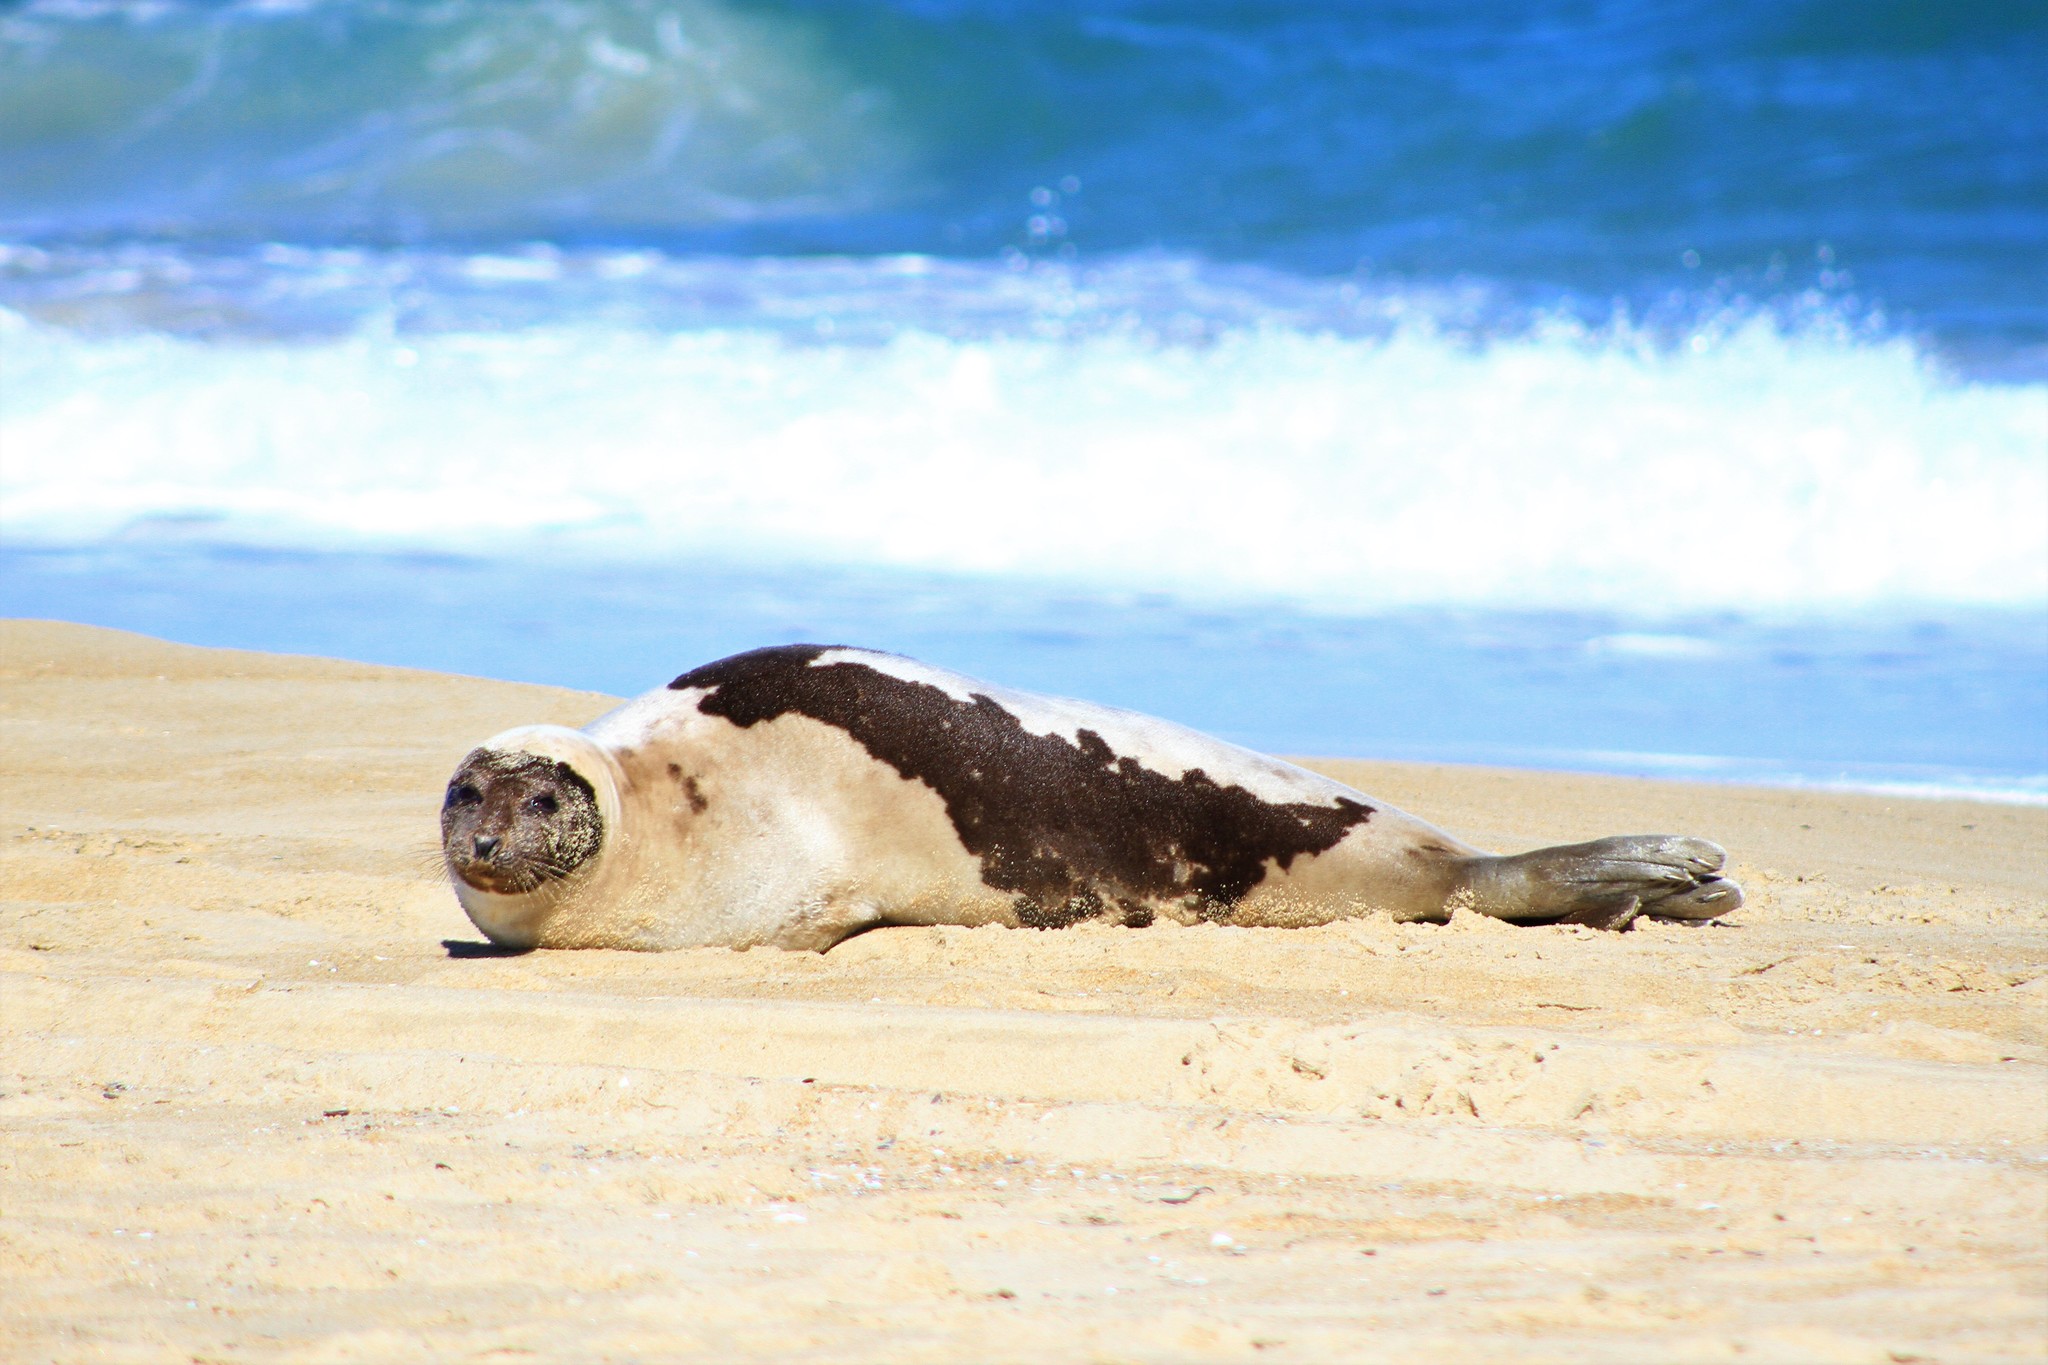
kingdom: Animalia
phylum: Chordata
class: Mammalia
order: Carnivora
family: Phocidae
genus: Pagophilus
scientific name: Pagophilus groenlandicus
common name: Harp seal
